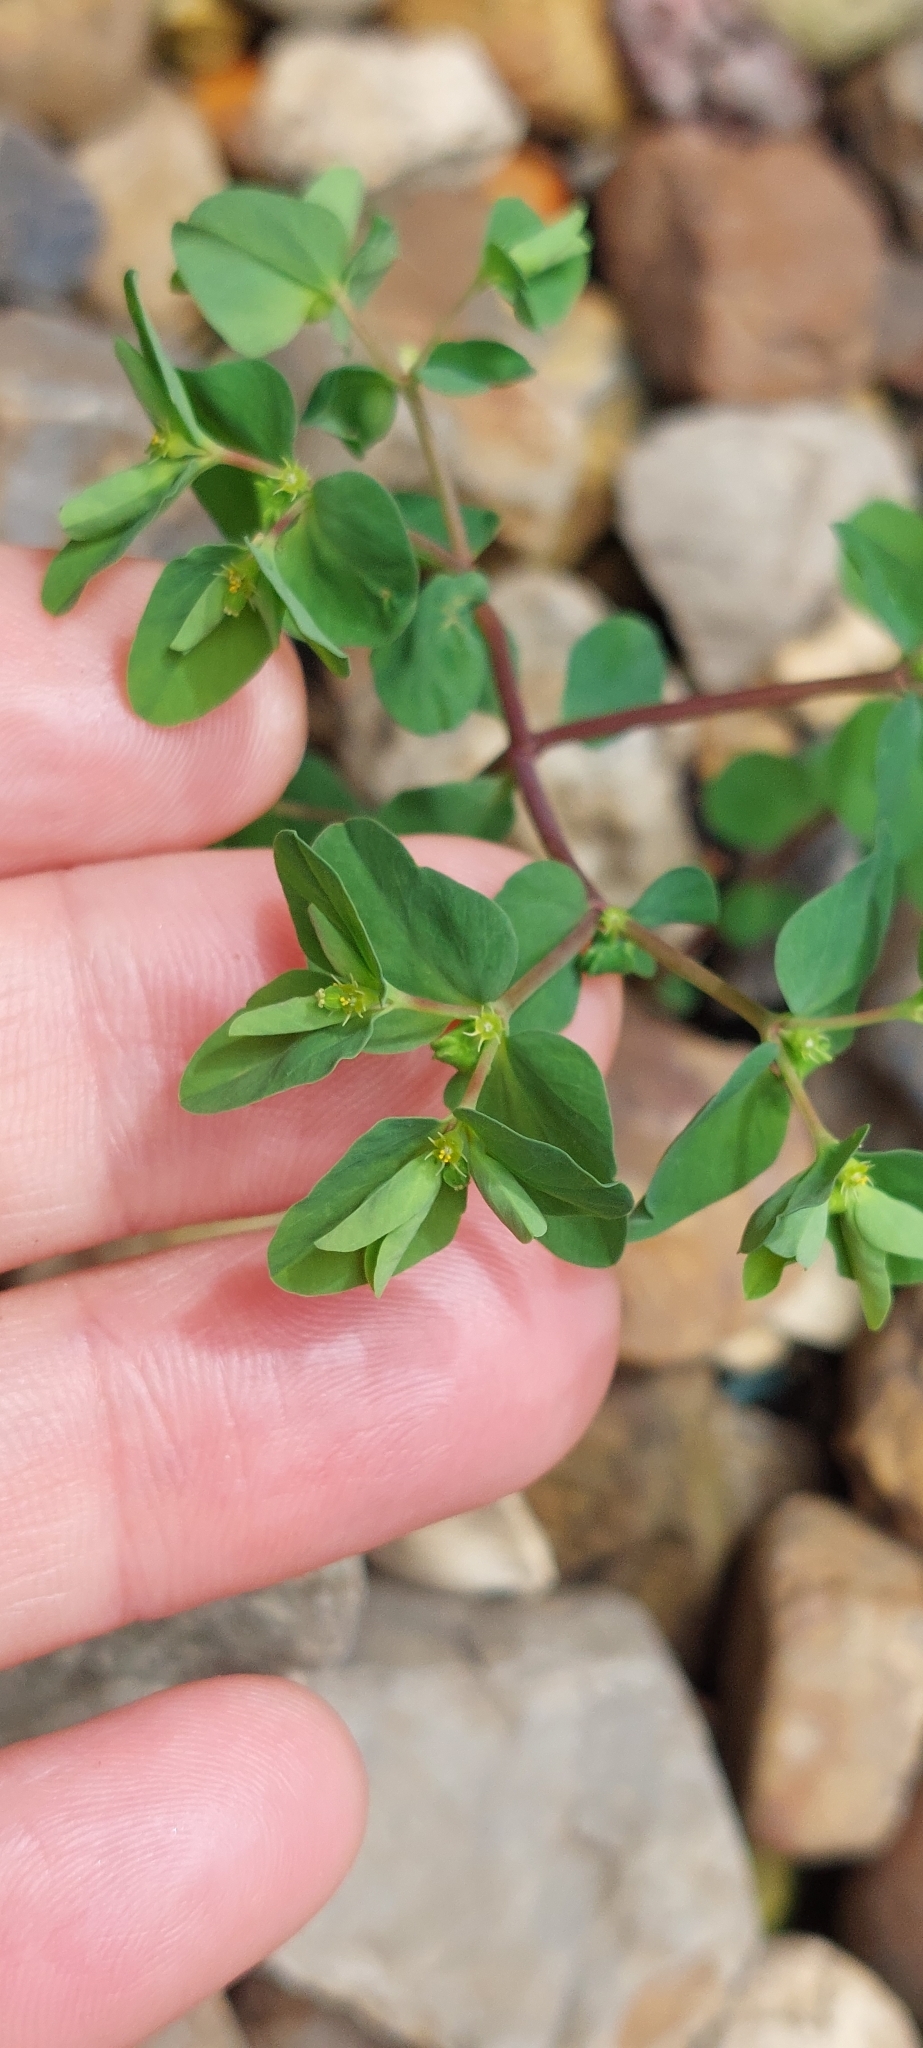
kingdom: Plantae
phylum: Tracheophyta
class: Magnoliopsida
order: Malpighiales
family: Euphorbiaceae
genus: Euphorbia
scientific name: Euphorbia peplus
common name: Petty spurge
